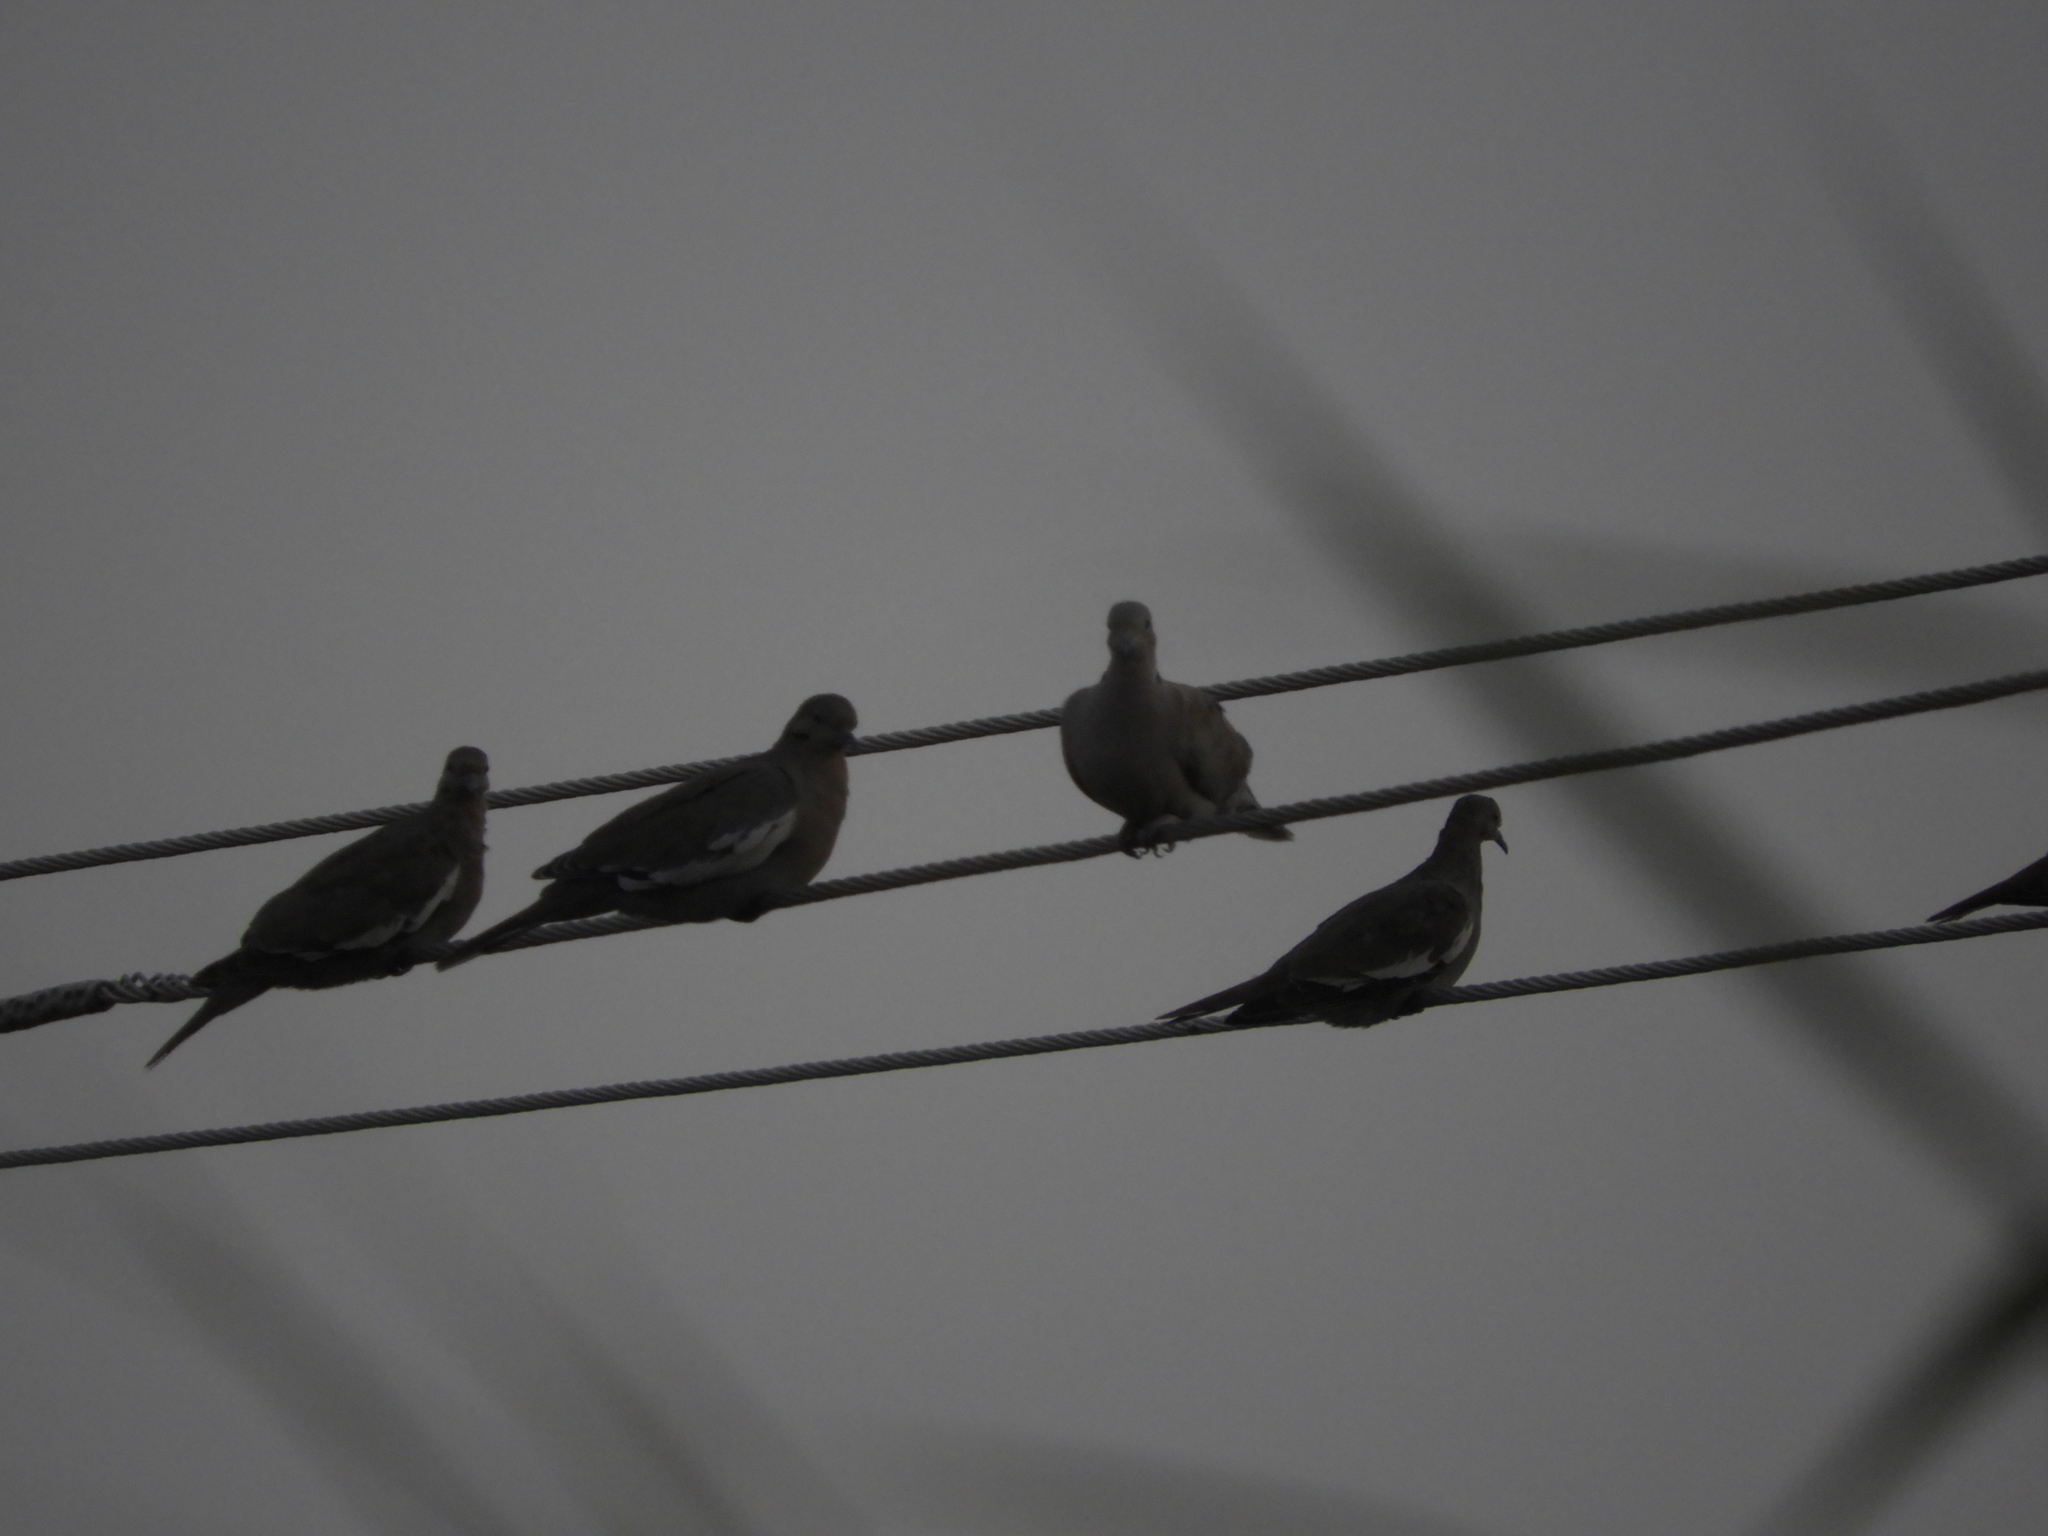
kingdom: Animalia
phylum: Chordata
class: Aves
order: Columbiformes
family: Columbidae
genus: Zenaida
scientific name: Zenaida asiatica
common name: White-winged dove
